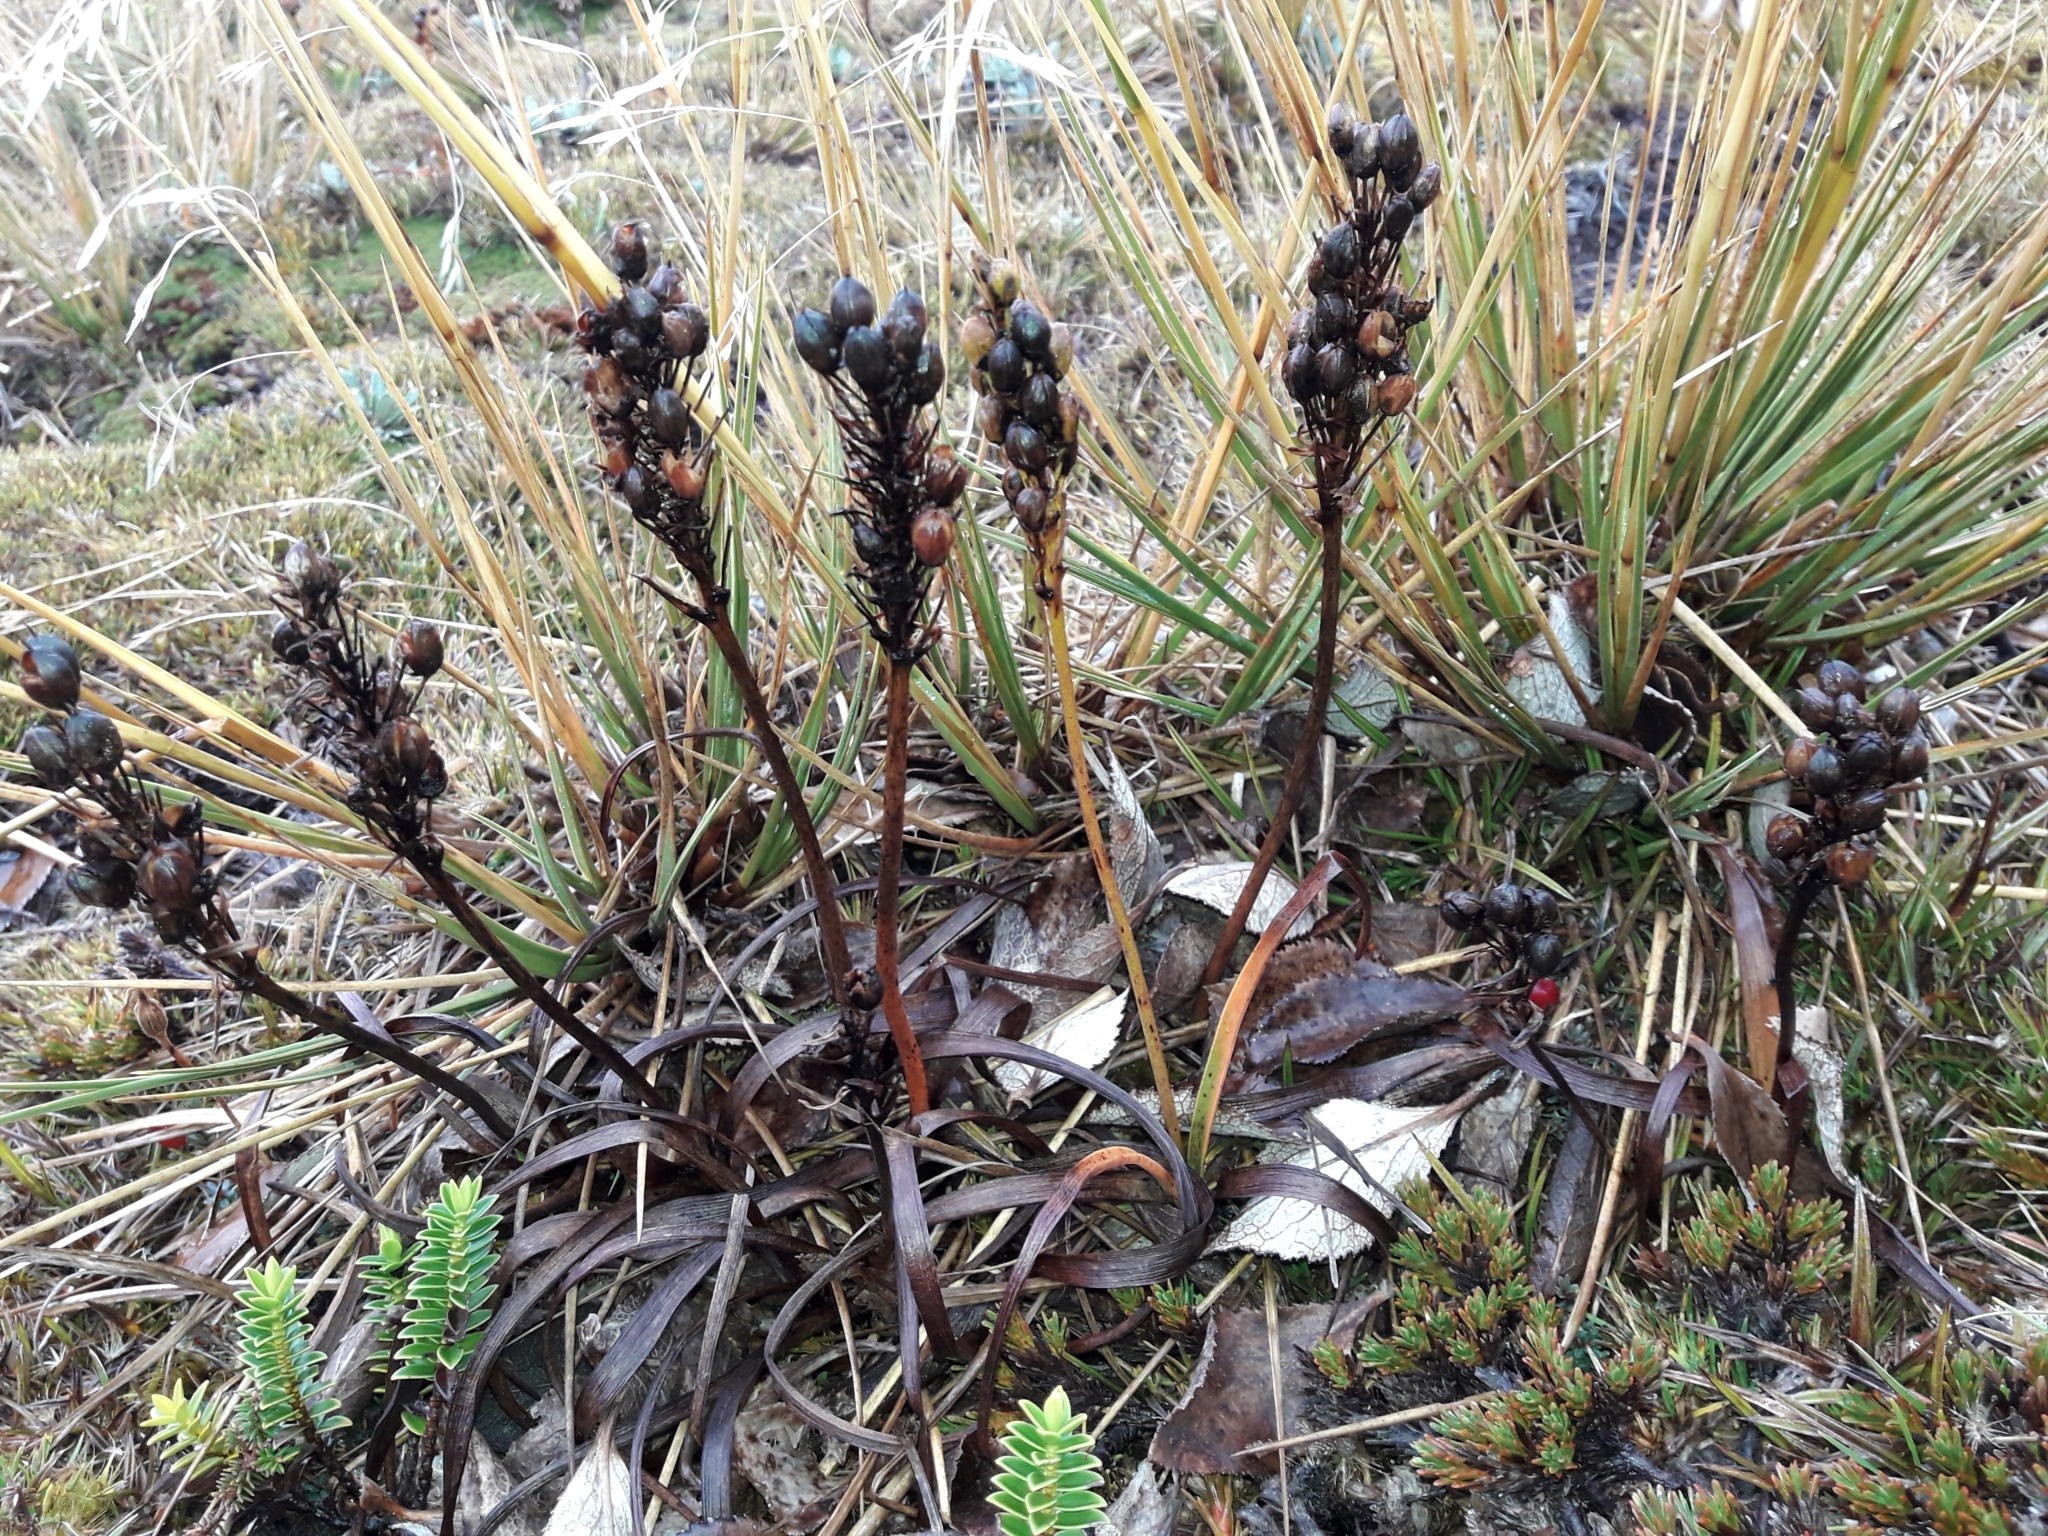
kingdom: Plantae
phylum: Tracheophyta
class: Liliopsida
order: Asparagales
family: Asphodelaceae
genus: Bulbinella
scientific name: Bulbinella gibbsii
